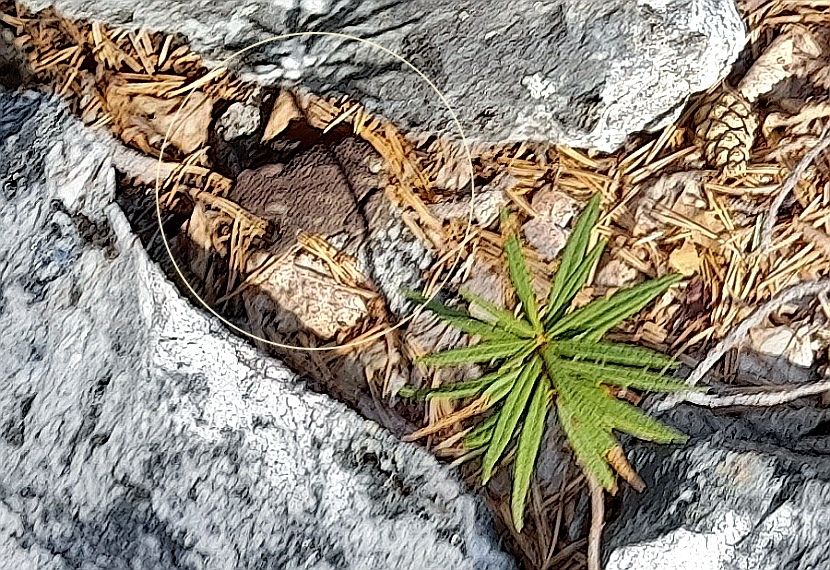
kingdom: Animalia
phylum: Chordata
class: Amphibia
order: Anura
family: Bufonidae
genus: Bufo
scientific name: Bufo bufo
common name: Common toad
